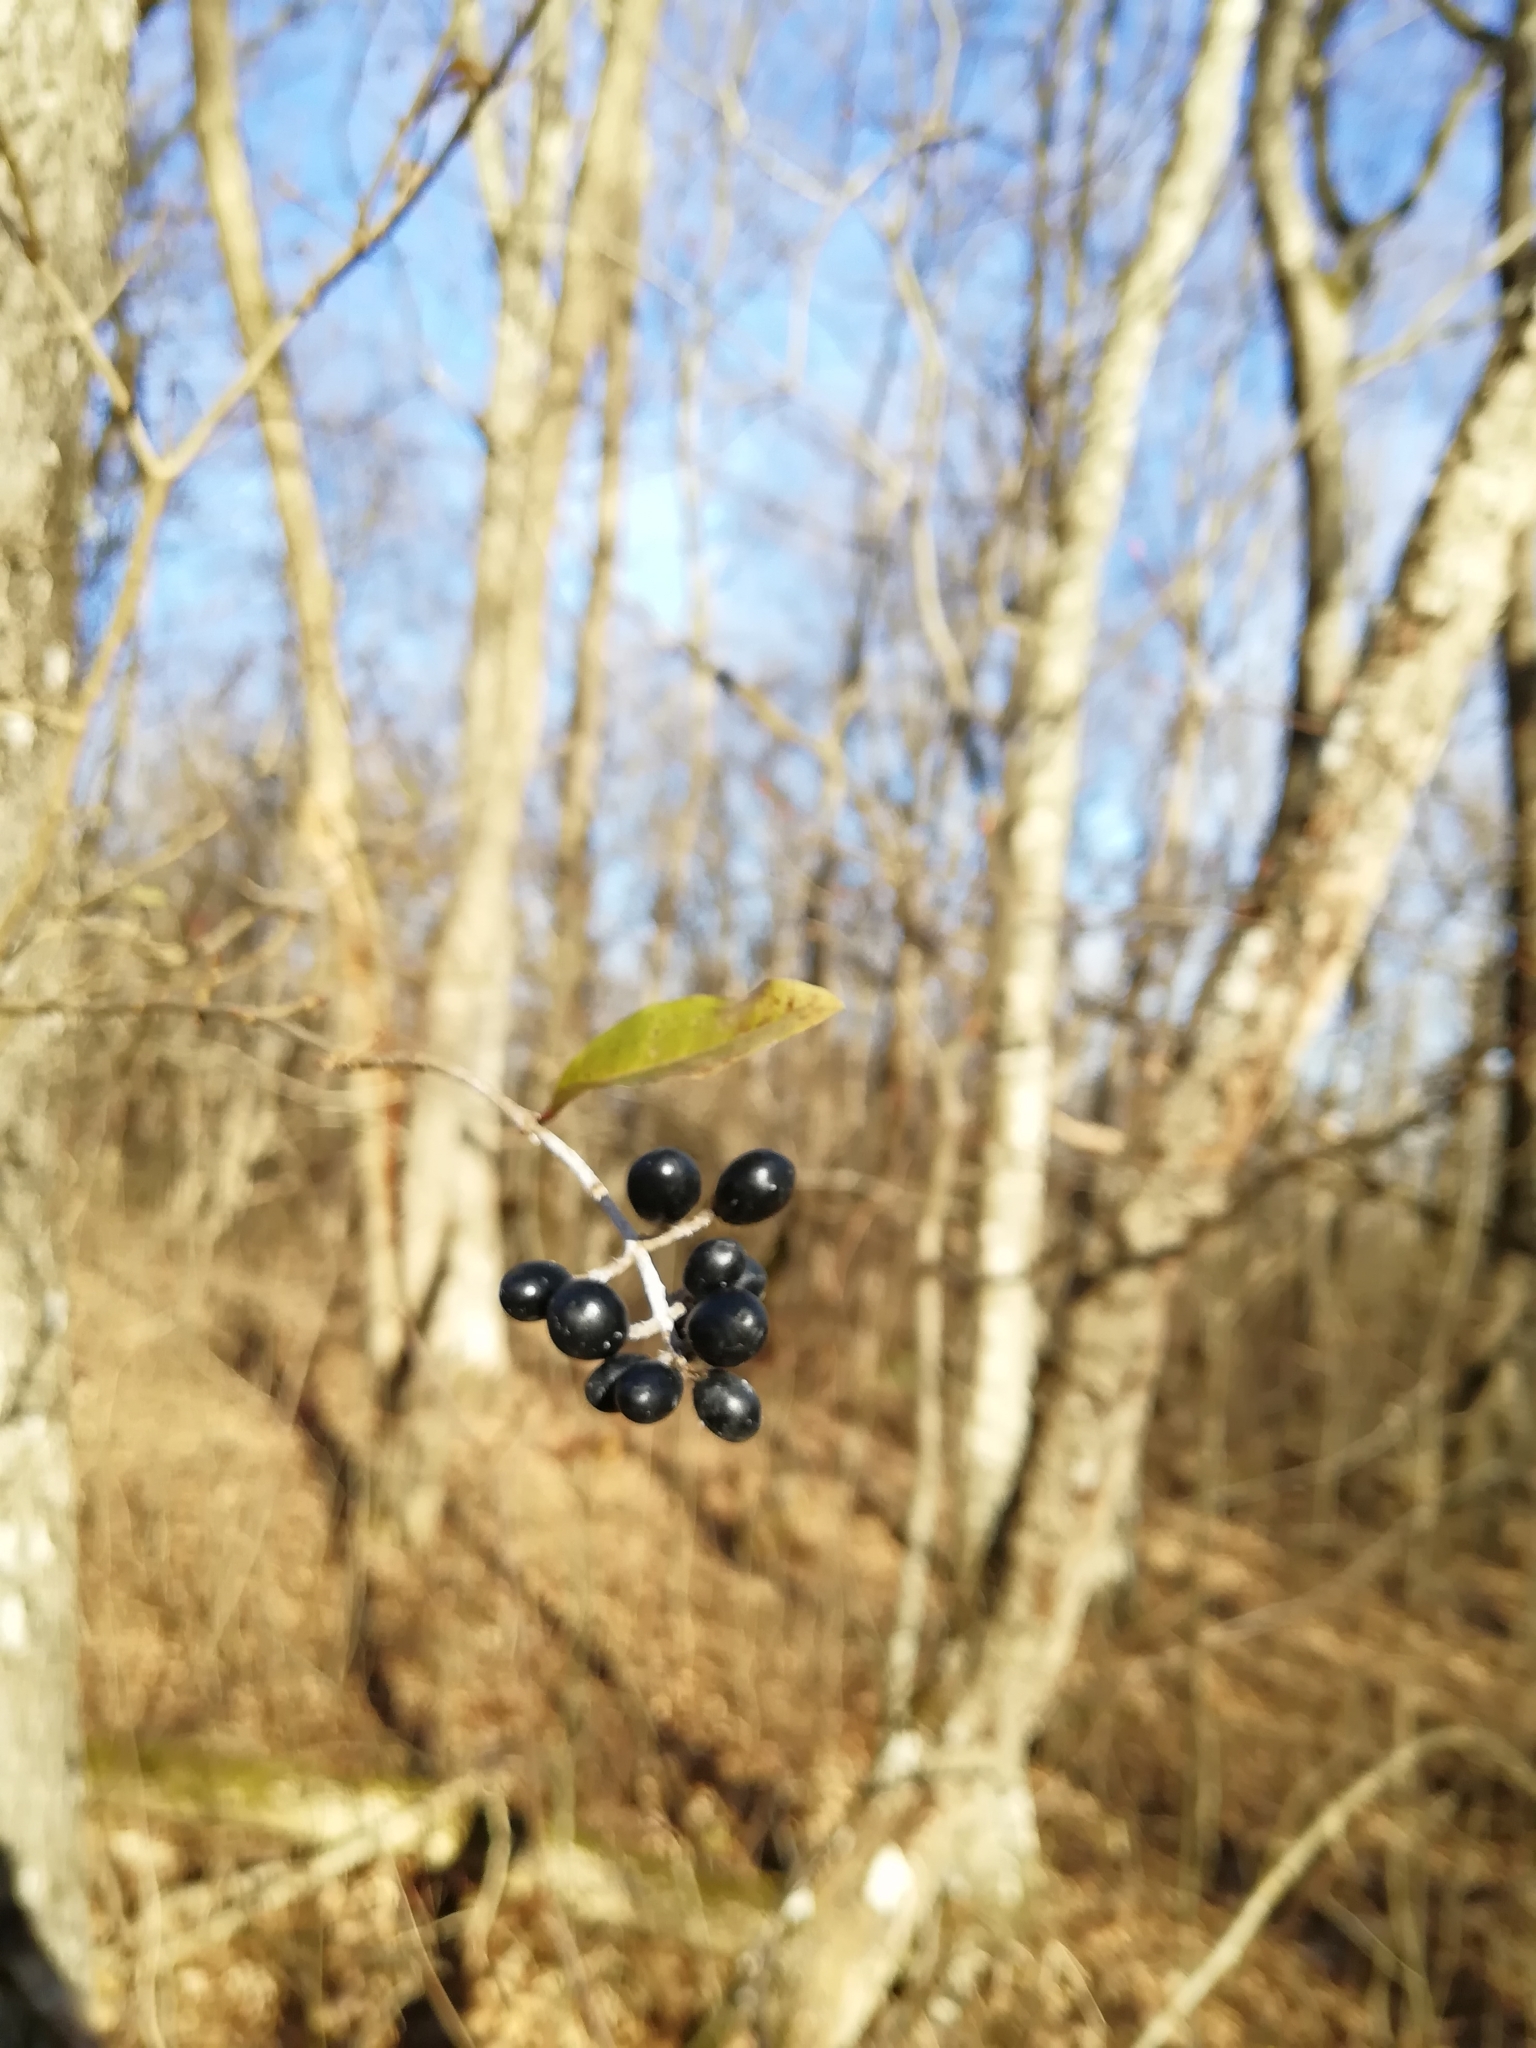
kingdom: Plantae
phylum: Tracheophyta
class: Magnoliopsida
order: Lamiales
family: Oleaceae
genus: Ligustrum
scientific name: Ligustrum vulgare
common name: Wild privet
